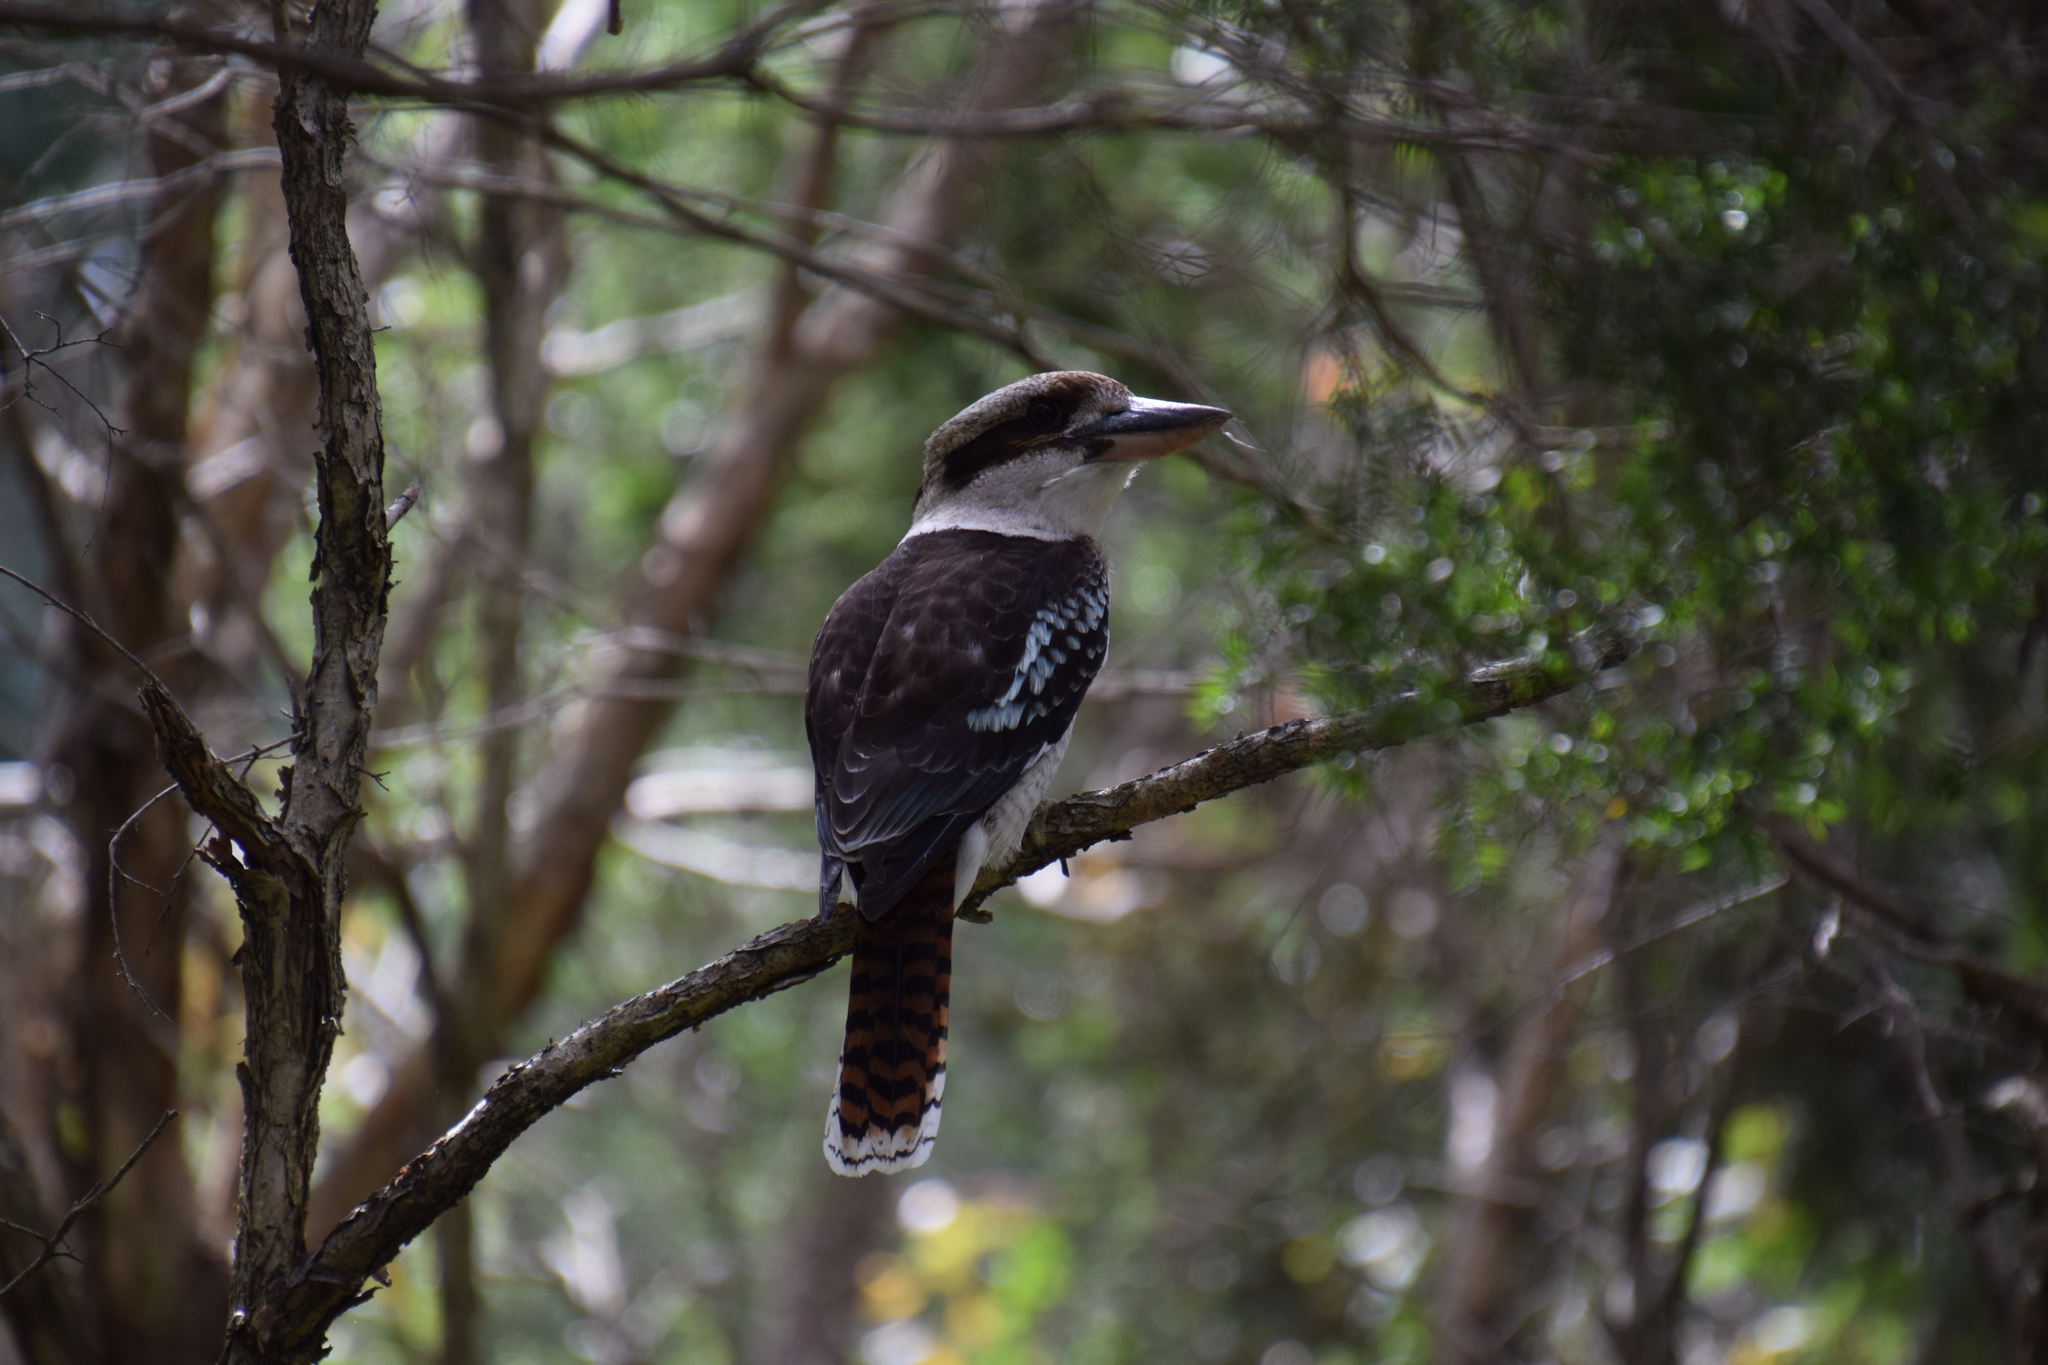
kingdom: Animalia
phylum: Chordata
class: Aves
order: Coraciiformes
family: Alcedinidae
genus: Dacelo
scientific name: Dacelo novaeguineae
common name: Laughing kookaburra
